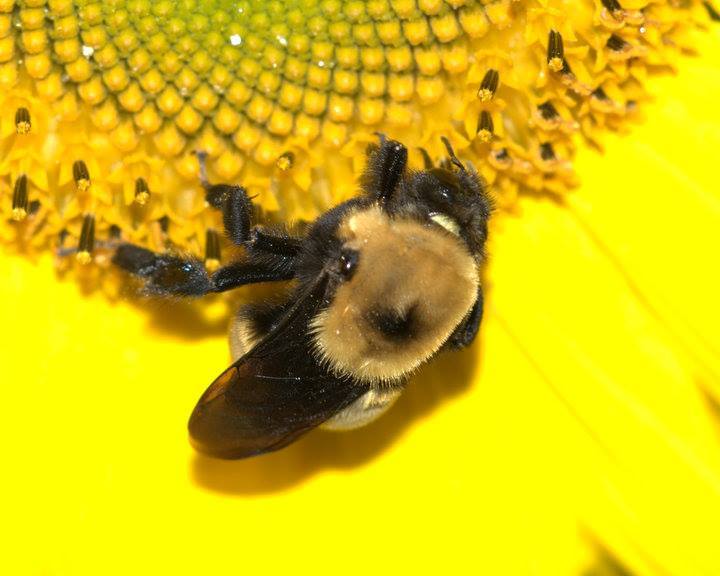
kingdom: Animalia
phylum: Arthropoda
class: Insecta
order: Hymenoptera
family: Apidae
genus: Bombus
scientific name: Bombus nevadensis
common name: Nevada bumble bee
